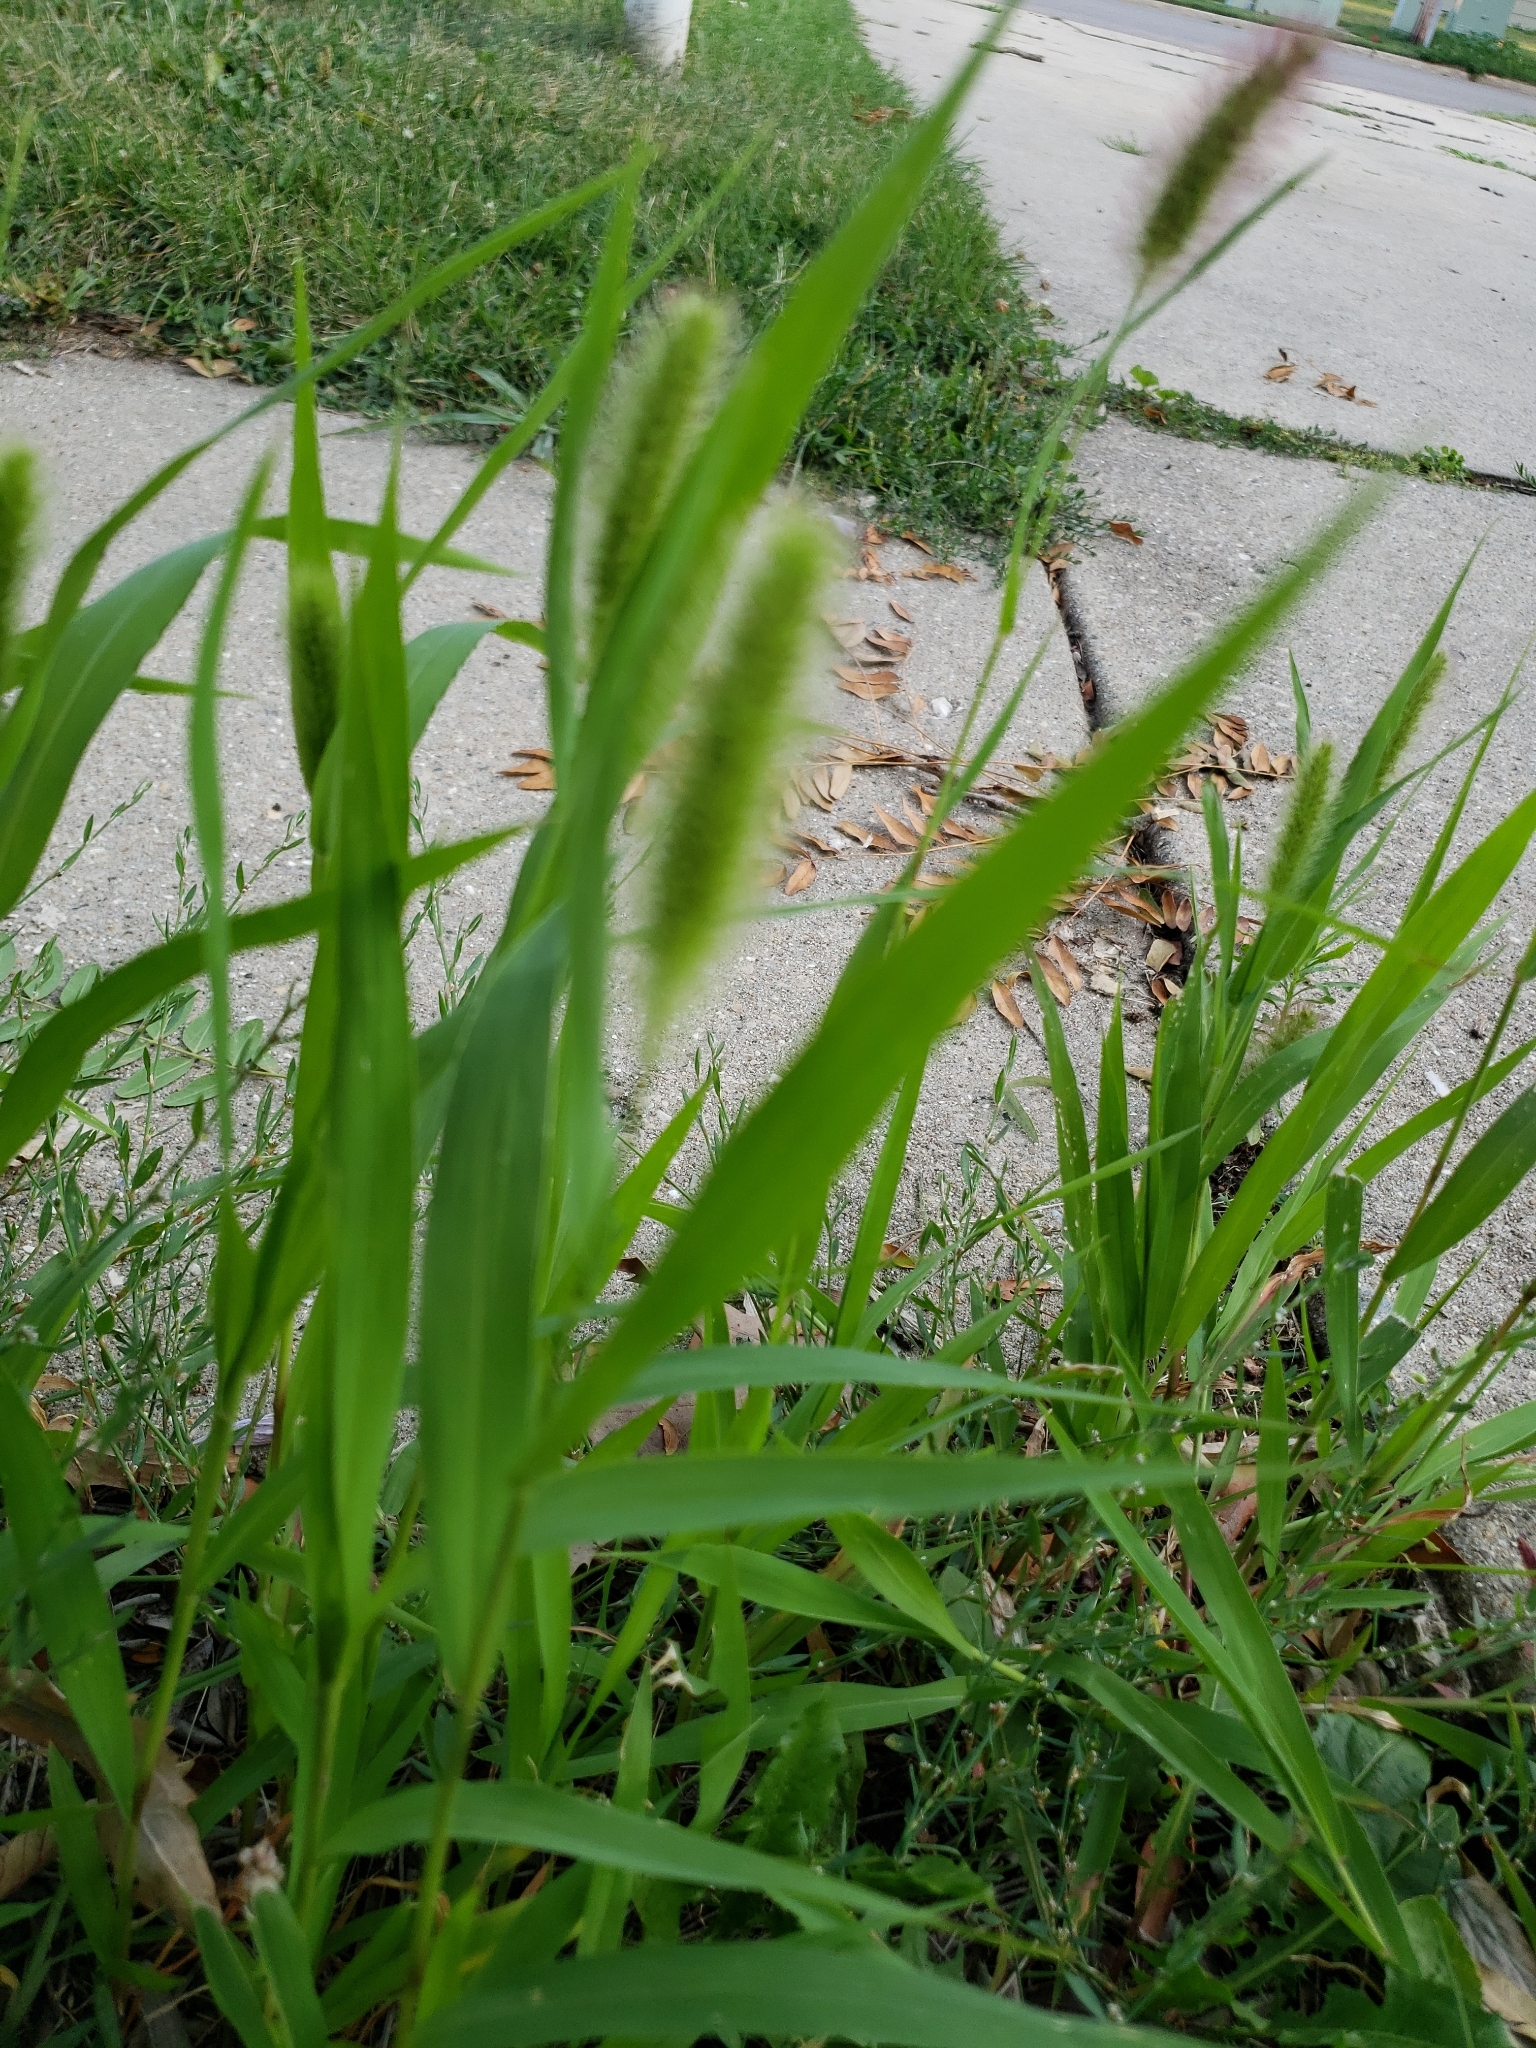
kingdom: Plantae
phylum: Tracheophyta
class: Liliopsida
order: Poales
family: Poaceae
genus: Setaria
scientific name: Setaria viridis
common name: Green bristlegrass
